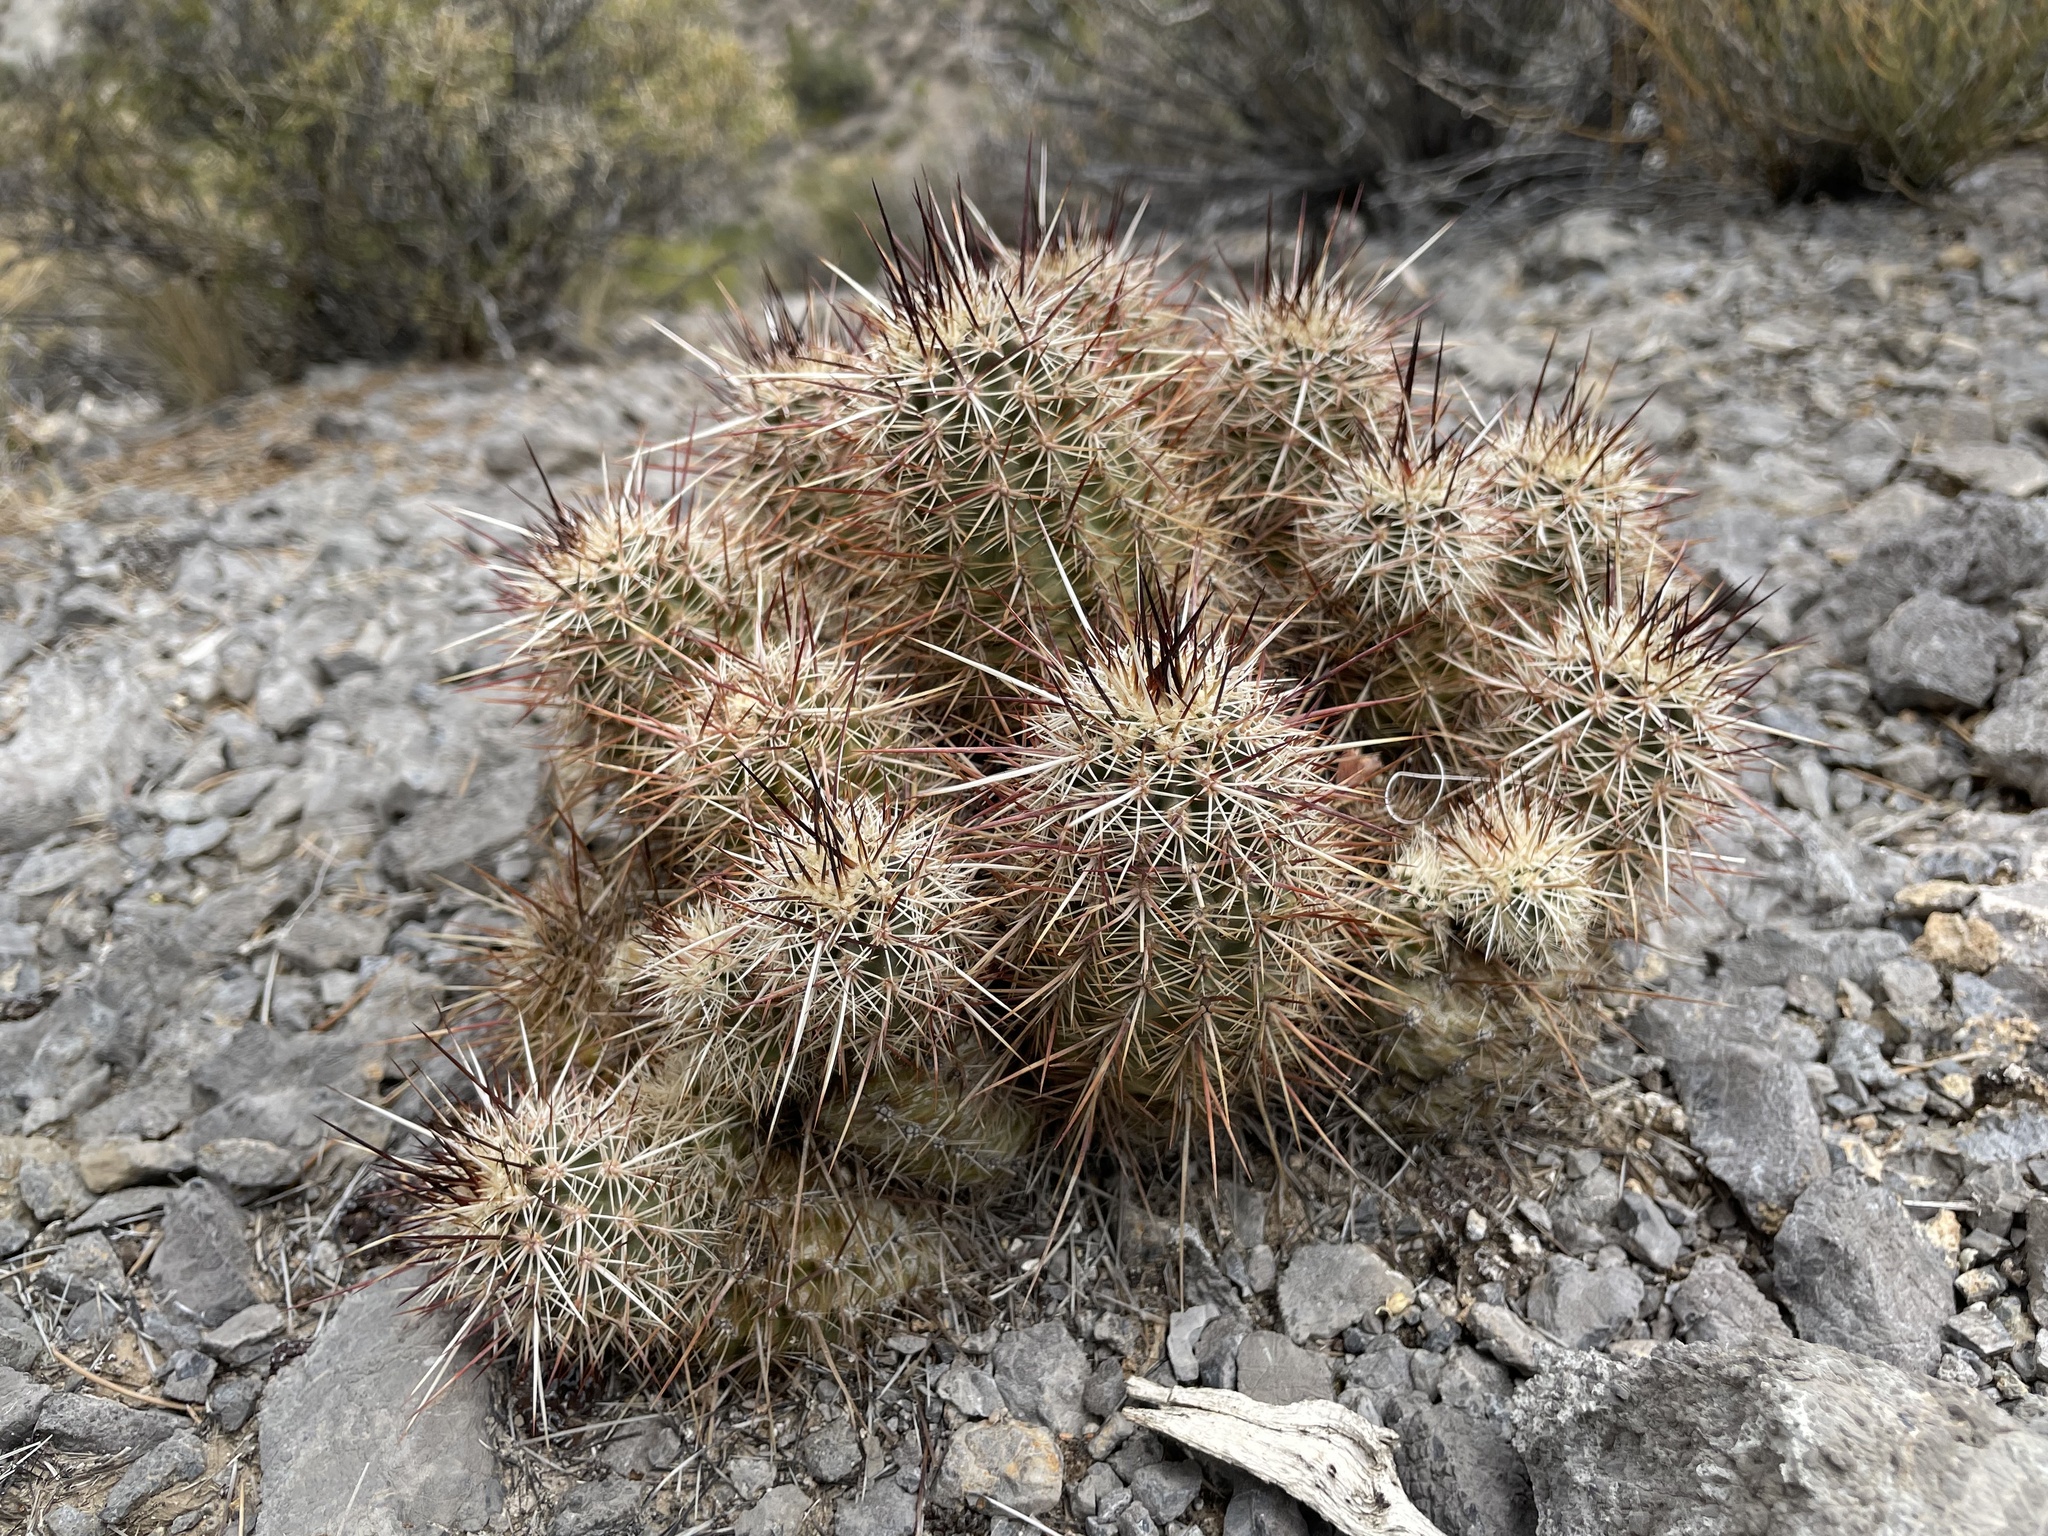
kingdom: Plantae
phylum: Tracheophyta
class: Magnoliopsida
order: Caryophyllales
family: Cactaceae
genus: Echinocereus
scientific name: Echinocereus engelmannii
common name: Engelmann's hedgehog cactus
